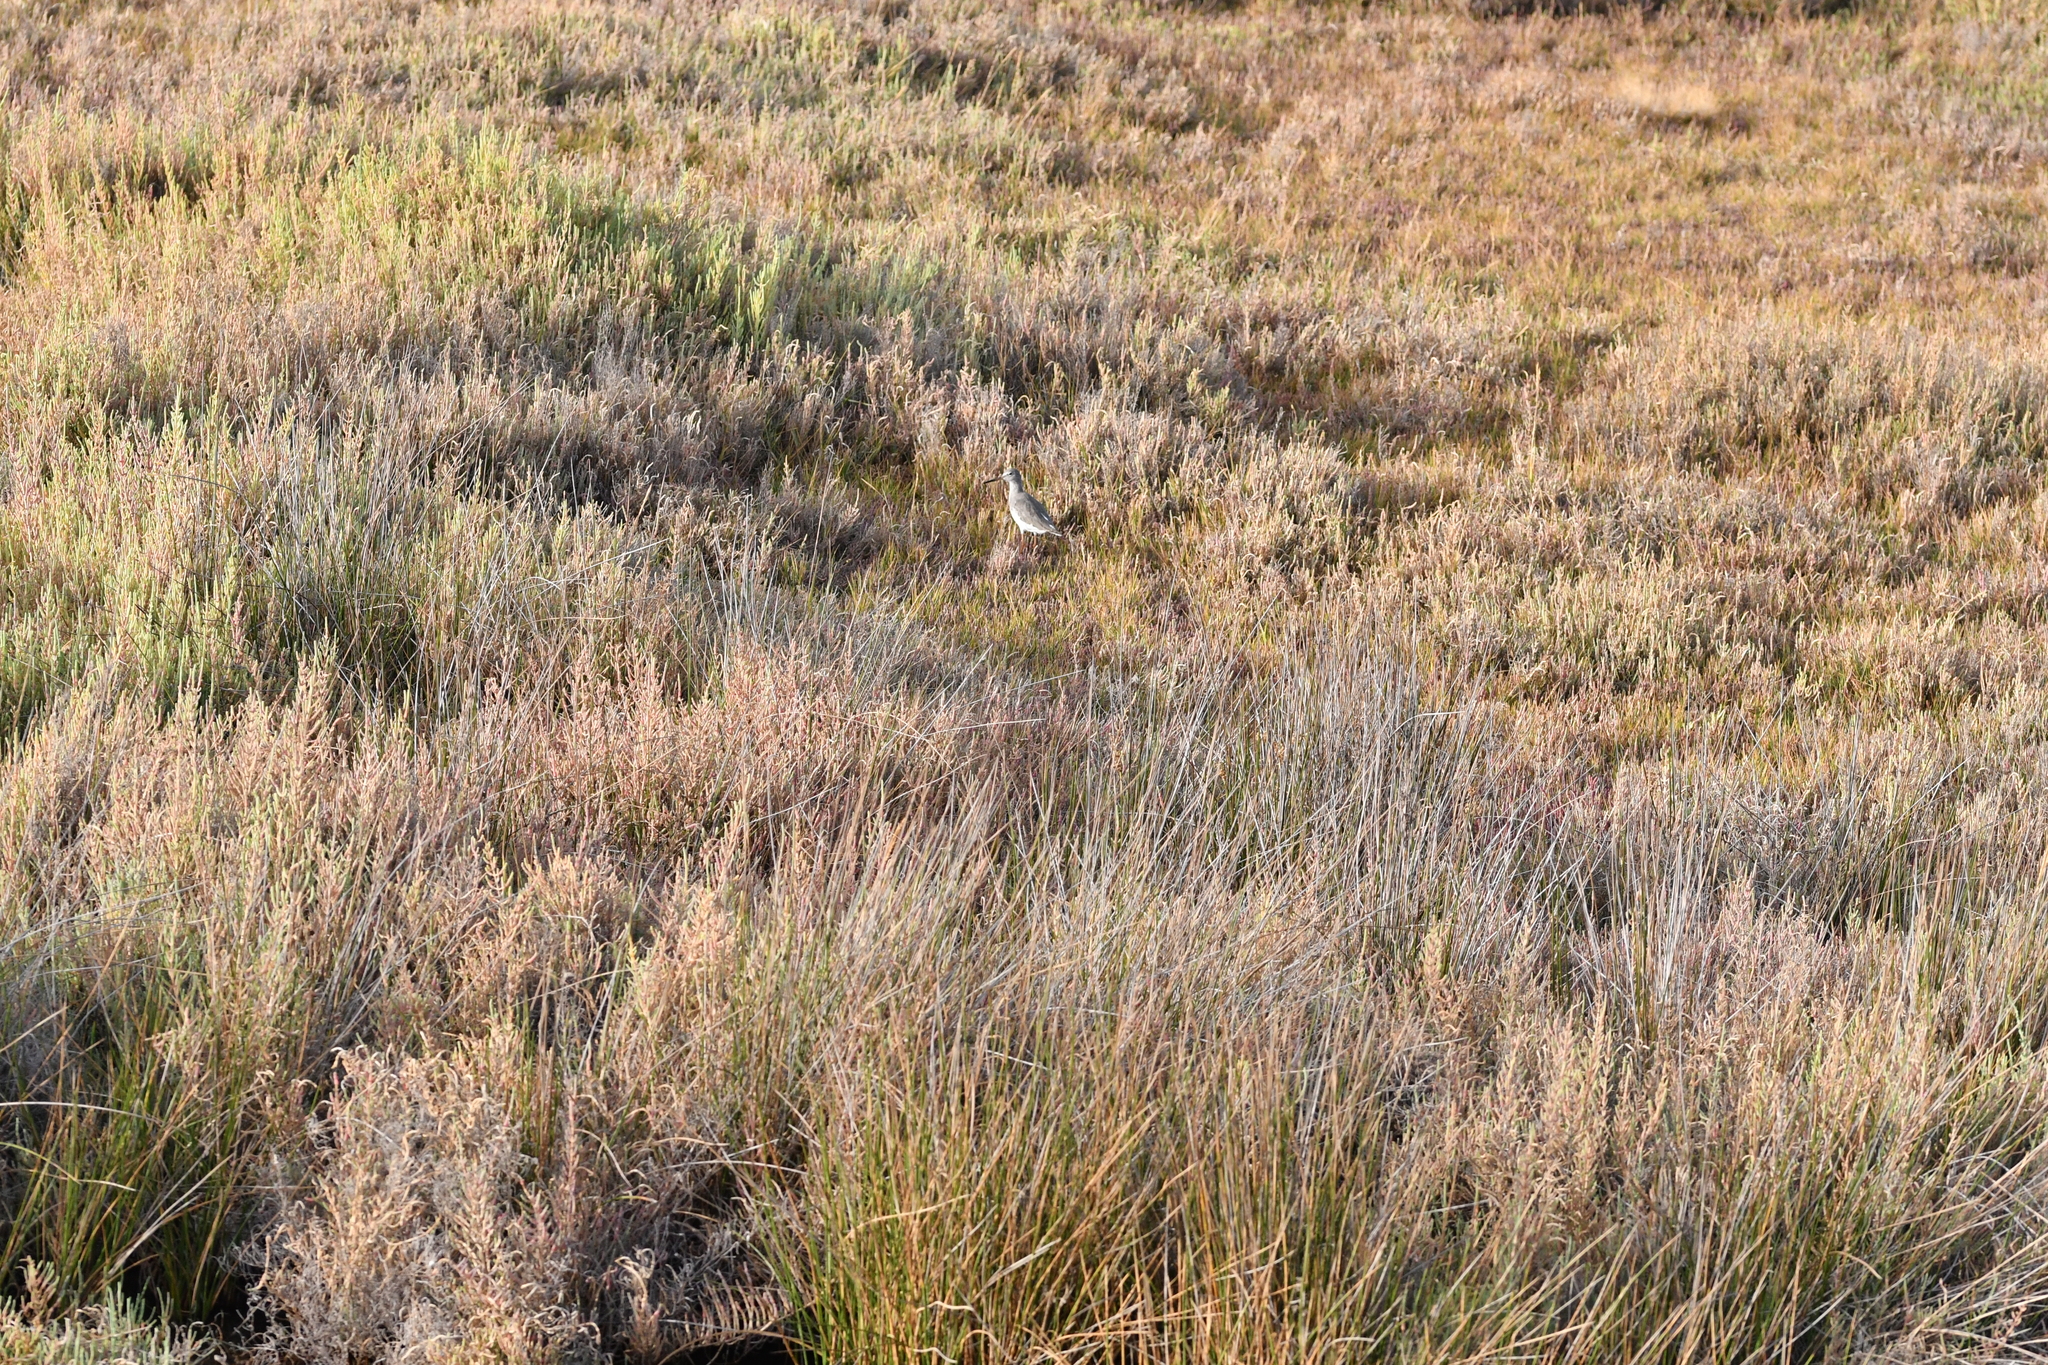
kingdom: Animalia
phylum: Chordata
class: Aves
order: Charadriiformes
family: Scolopacidae
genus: Tringa
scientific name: Tringa totanus
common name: Common redshank
